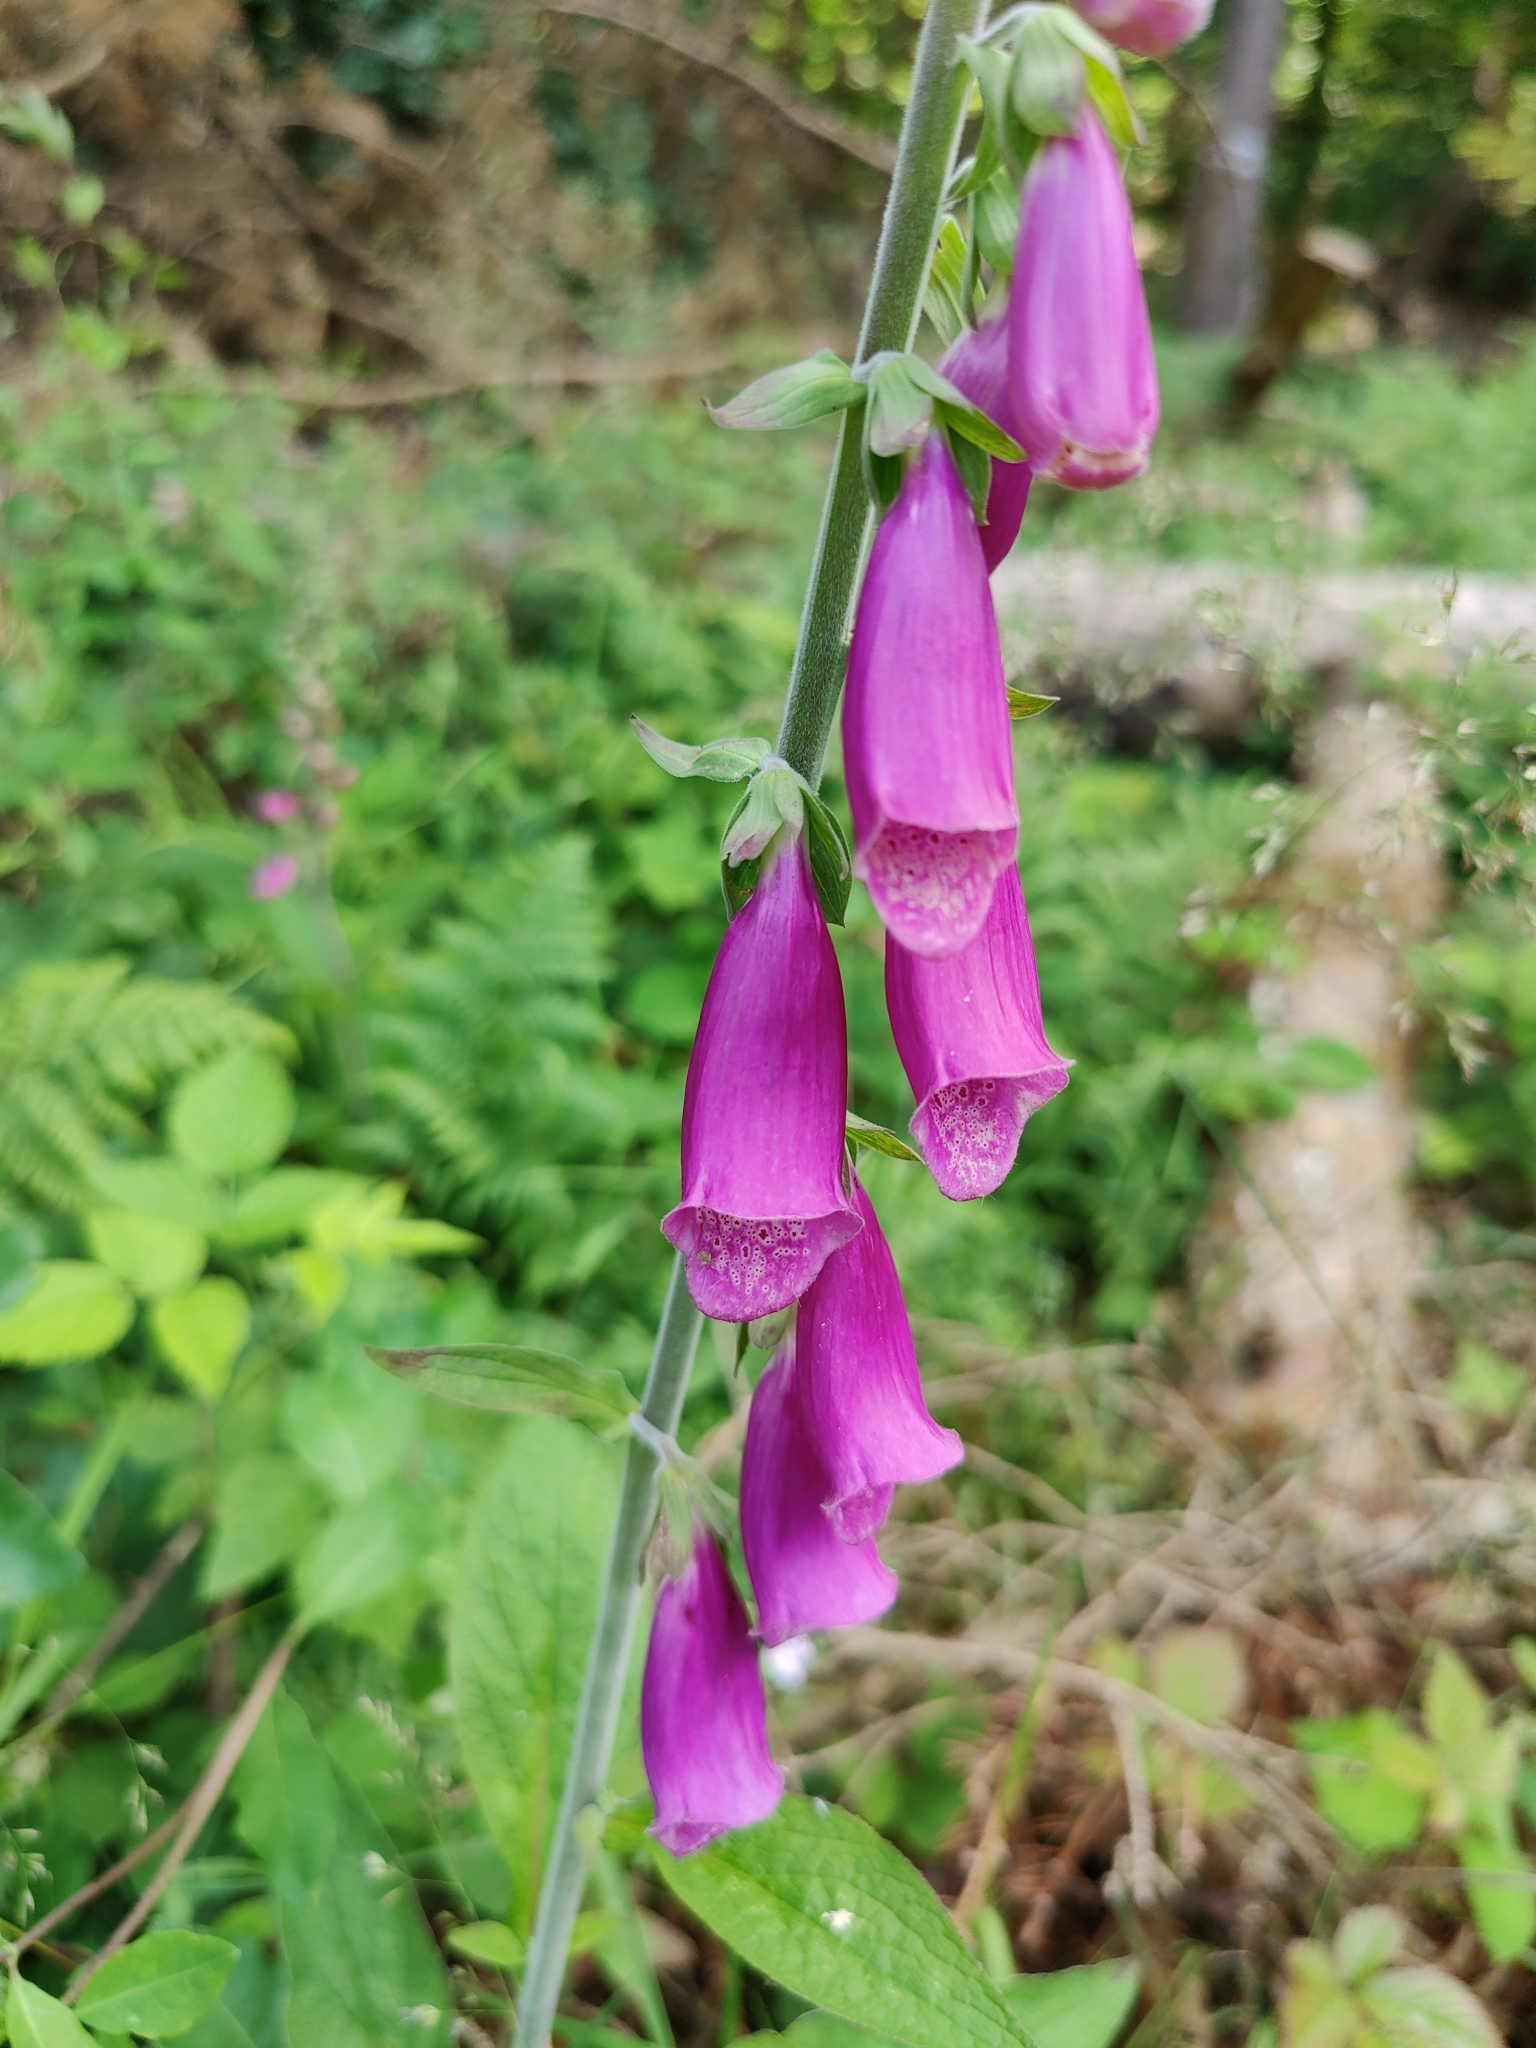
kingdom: Plantae
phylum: Tracheophyta
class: Magnoliopsida
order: Lamiales
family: Plantaginaceae
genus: Digitalis
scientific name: Digitalis purpurea
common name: Foxglove
